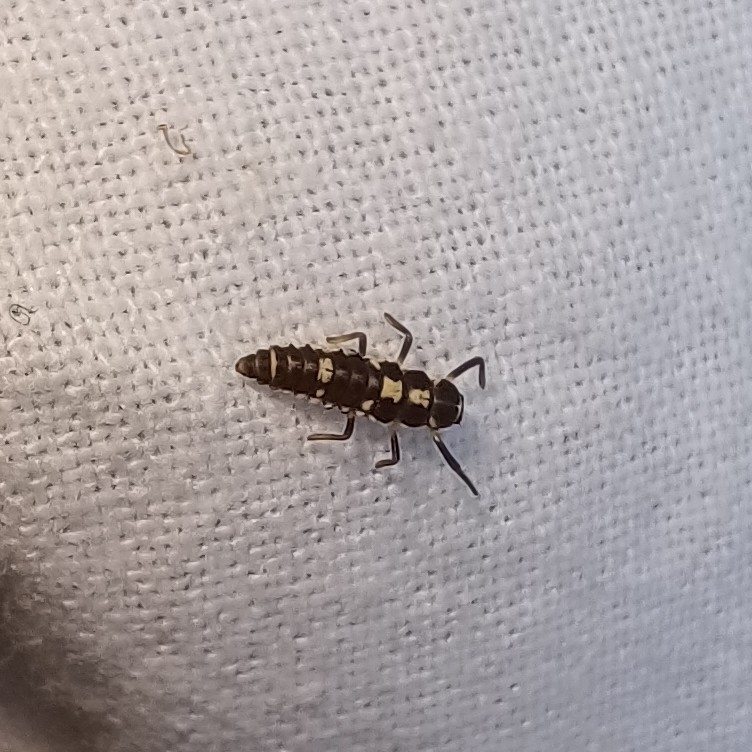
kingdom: Animalia
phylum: Arthropoda
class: Insecta
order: Coleoptera
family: Coccinellidae
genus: Propylaea
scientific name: Propylaea quatuordecimpunctata
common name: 14-spotted ladybird beetle
